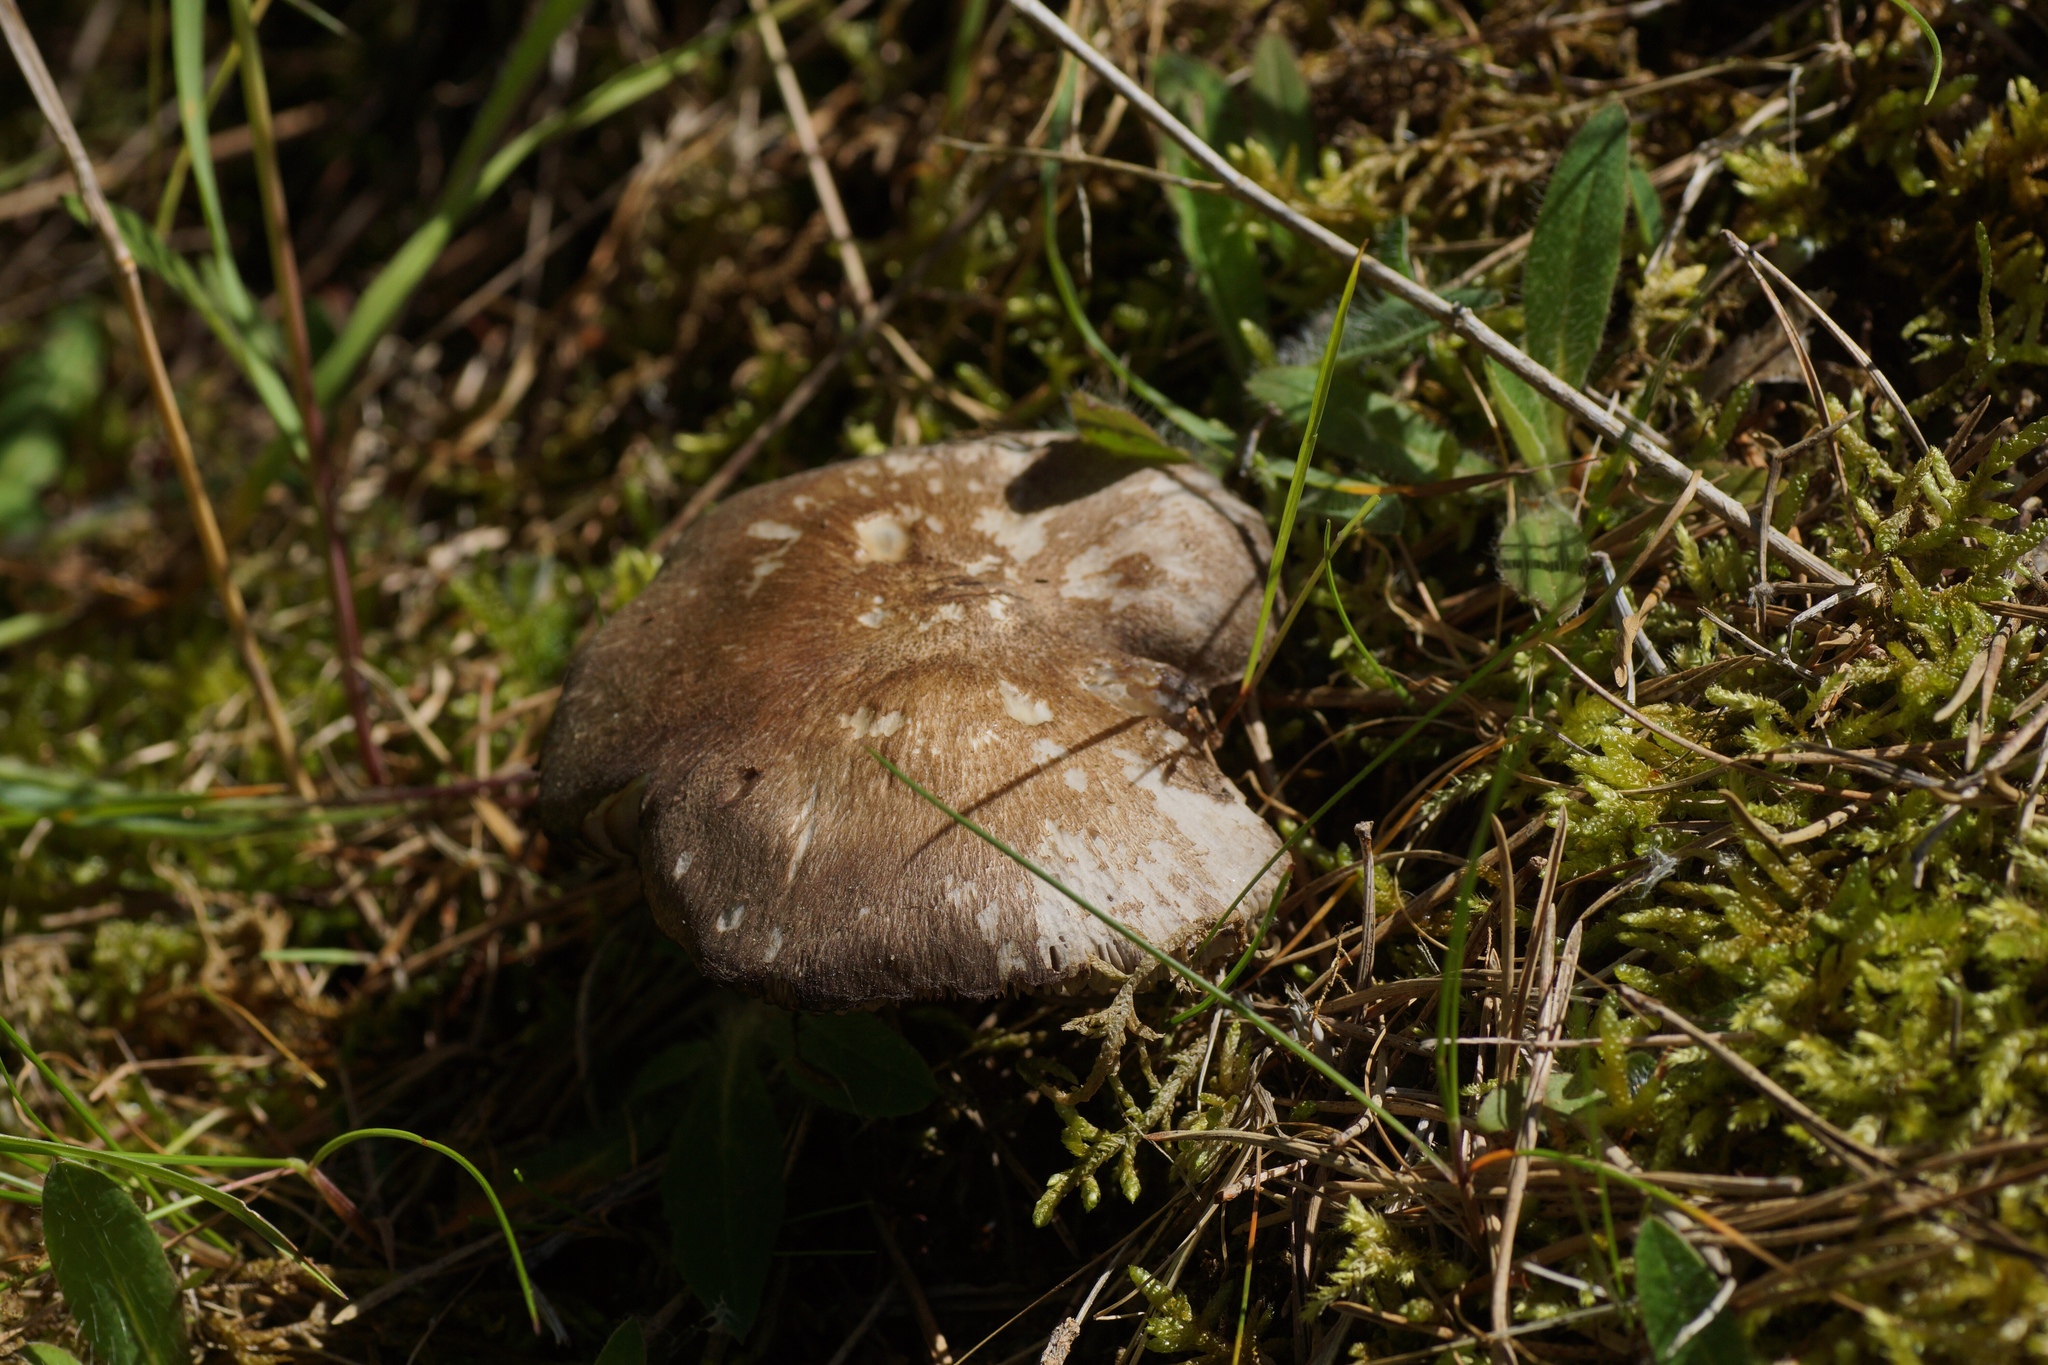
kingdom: Fungi
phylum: Basidiomycota
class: Agaricomycetes
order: Agaricales
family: Tricholomataceae
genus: Tricholoma
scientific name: Tricholoma terreum
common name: Grey knight
